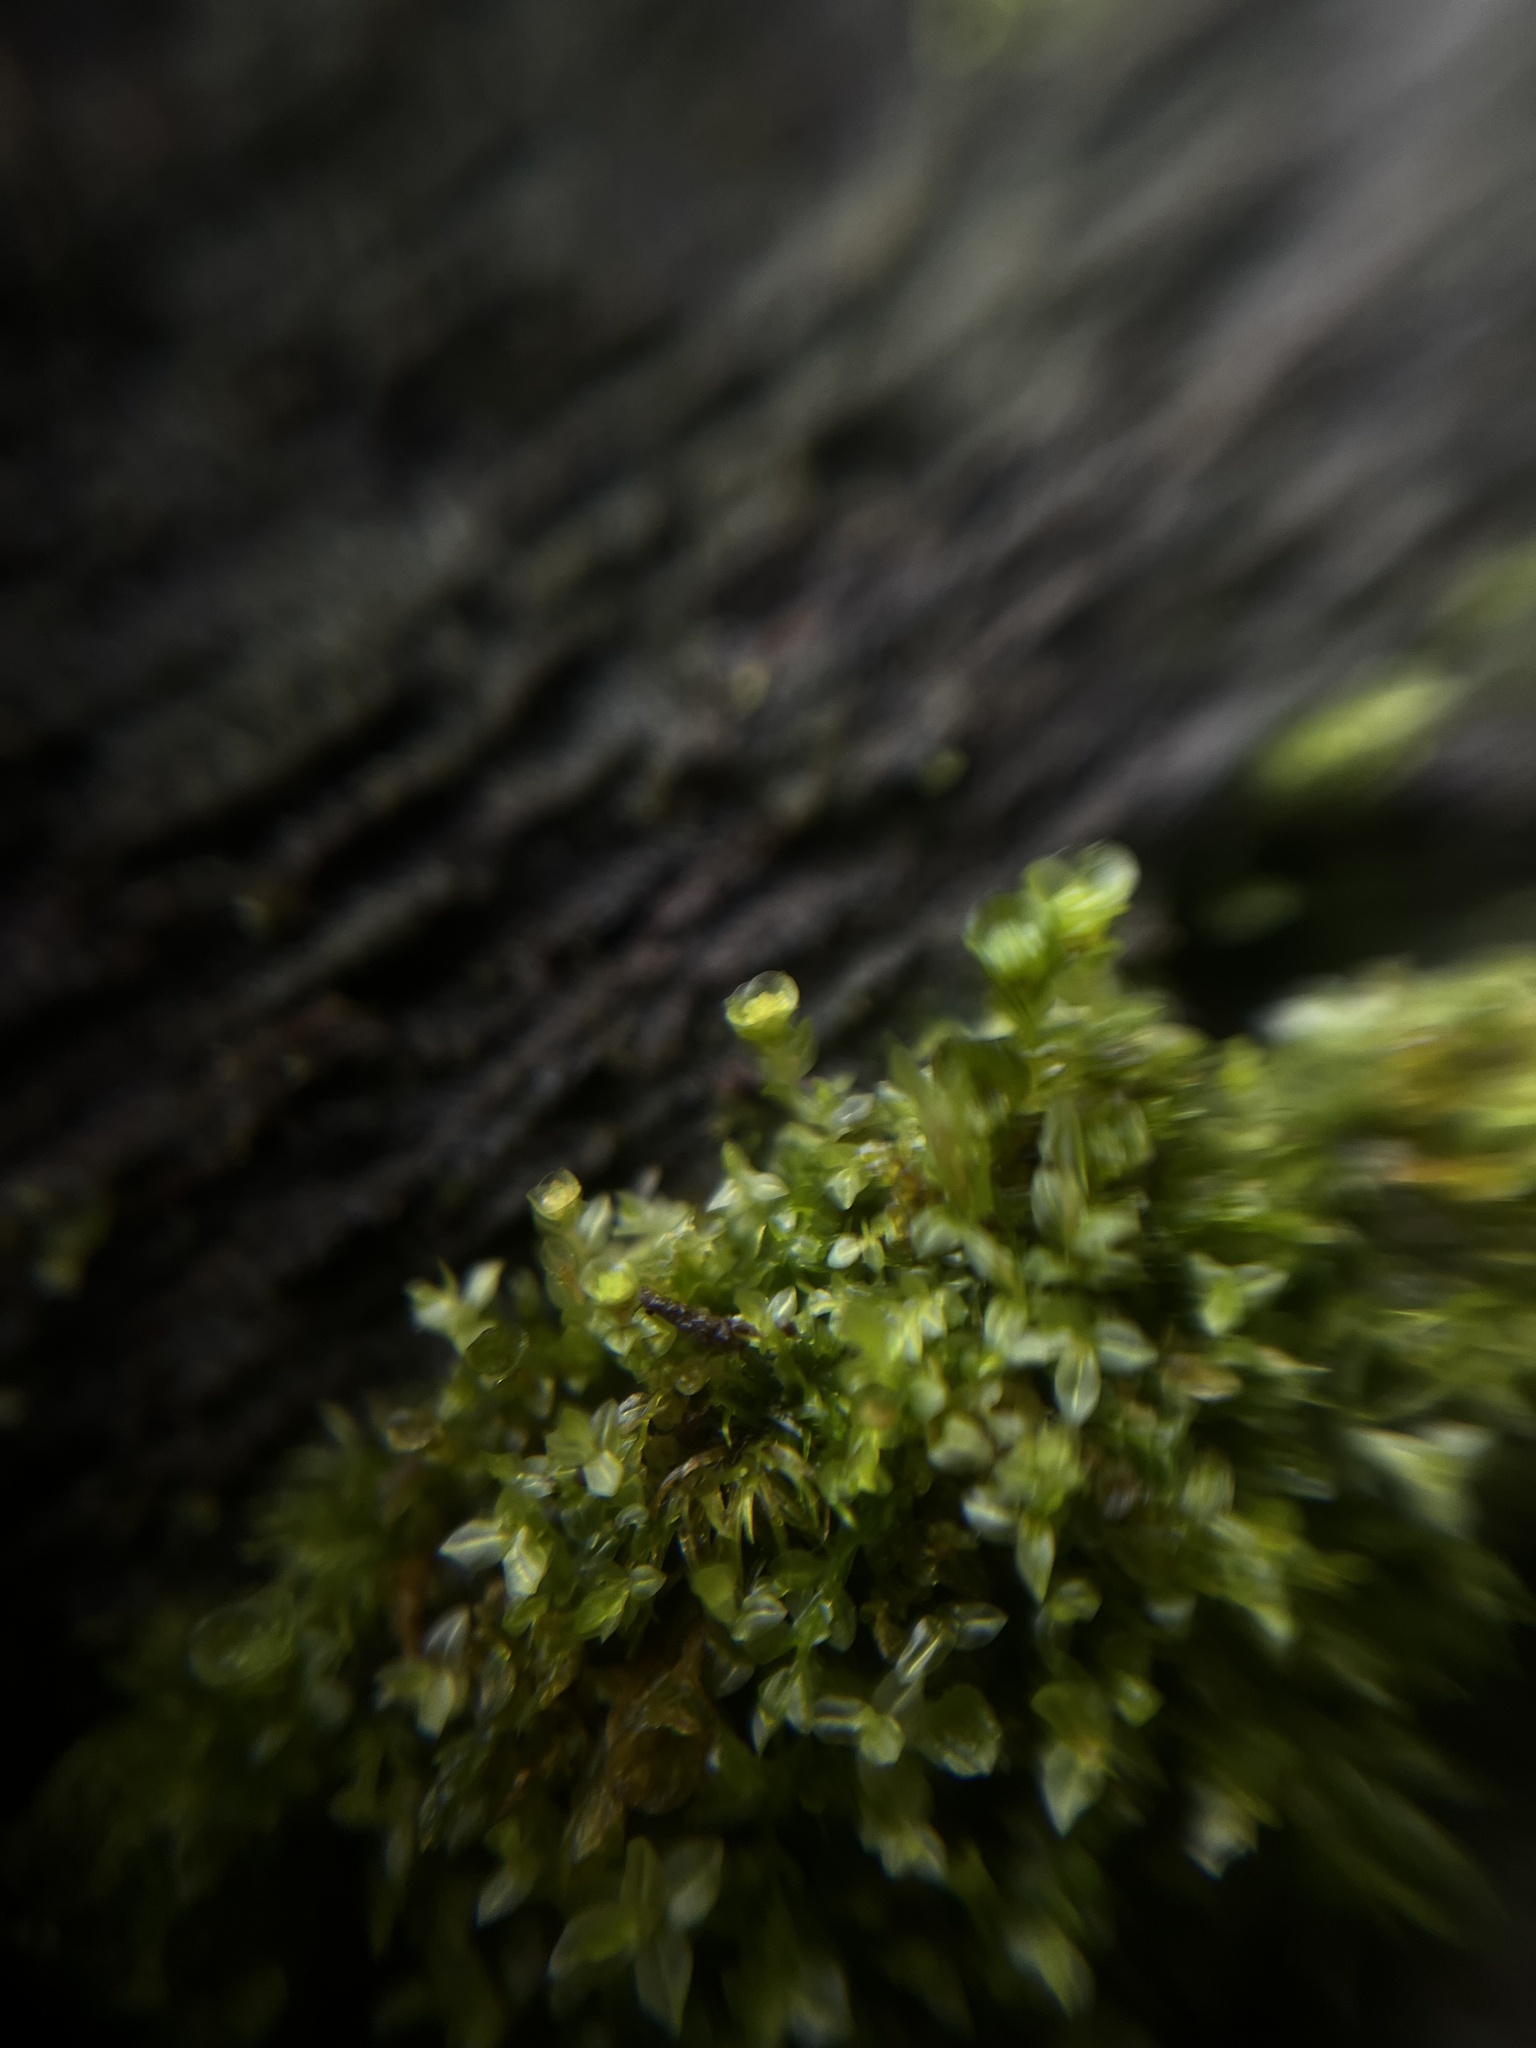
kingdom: Plantae
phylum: Bryophyta
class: Polytrichopsida
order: Tetraphidales
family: Tetraphidaceae
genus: Tetraphis
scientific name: Tetraphis pellucida
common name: Common four-toothed moss
